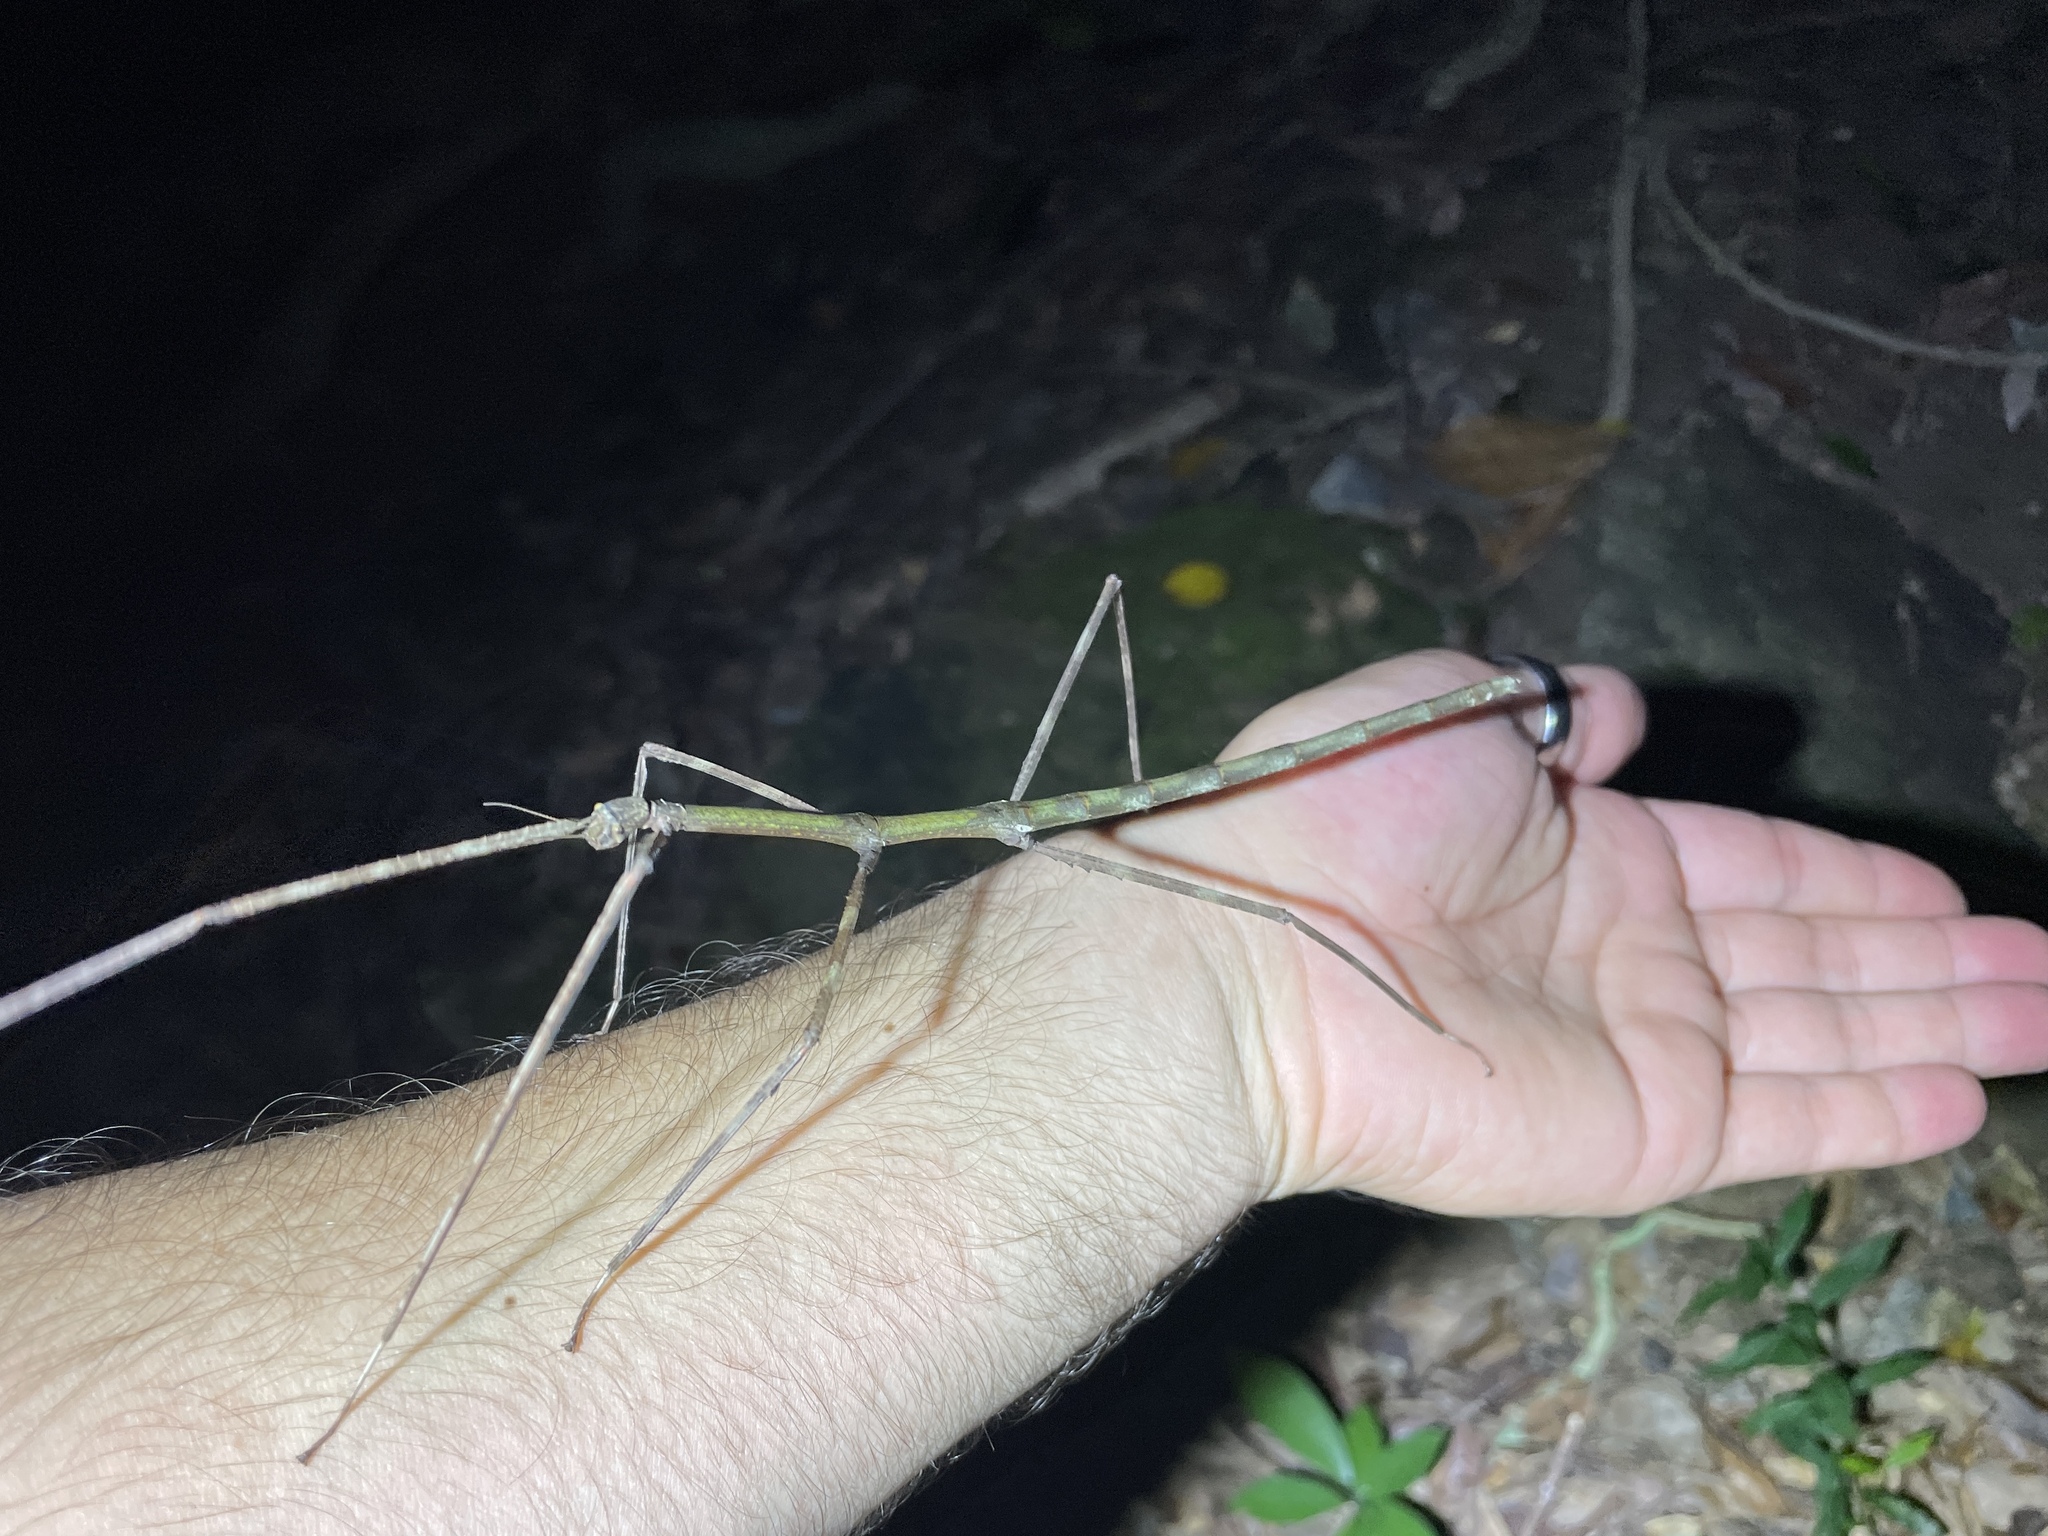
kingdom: Animalia
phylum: Arthropoda
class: Insecta
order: Phasmida
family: Phasmatidae
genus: Ramulus
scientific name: Ramulus caii
